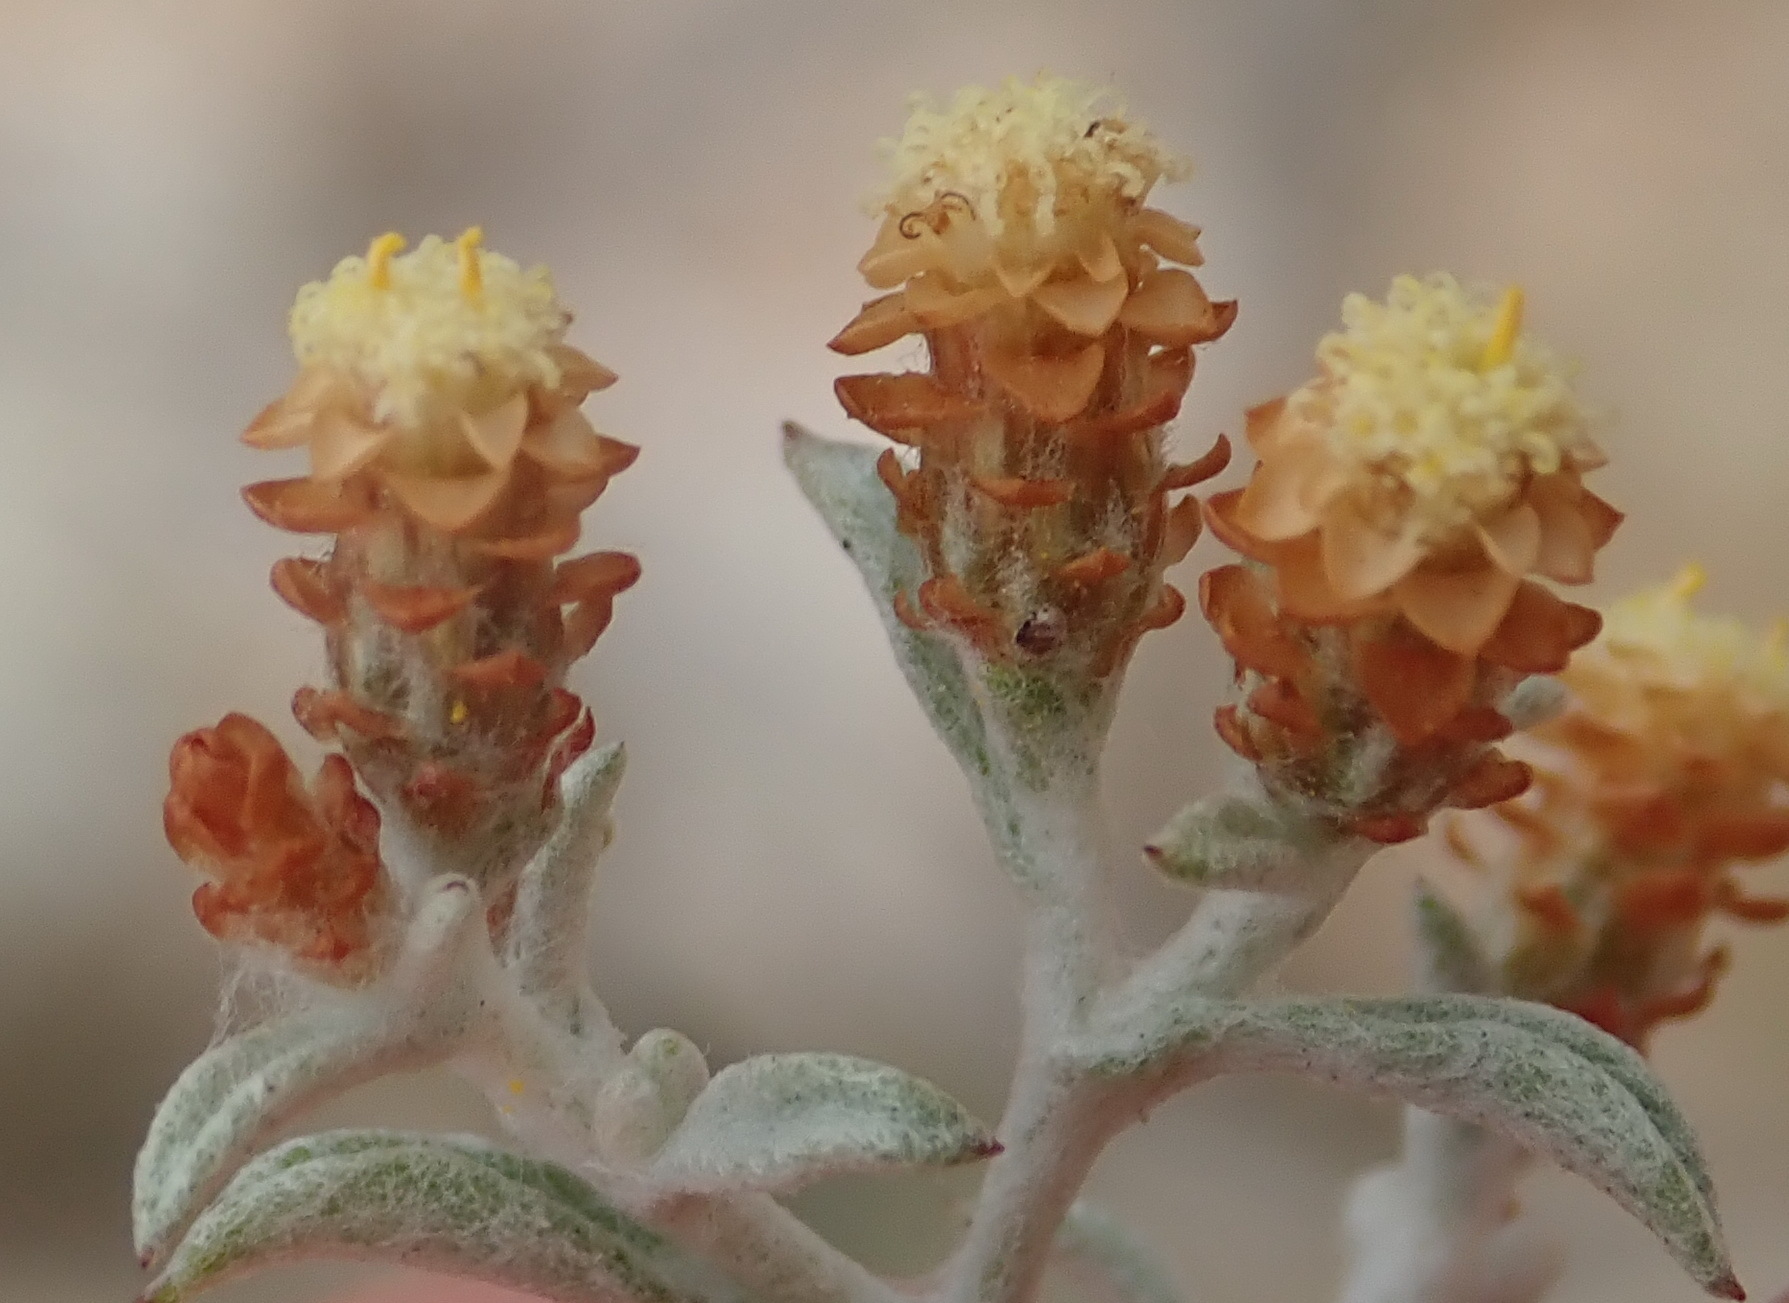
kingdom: Plantae
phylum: Tracheophyta
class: Magnoliopsida
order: Asterales
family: Asteraceae
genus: Helichrysum
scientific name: Helichrysum cylindriflorum
